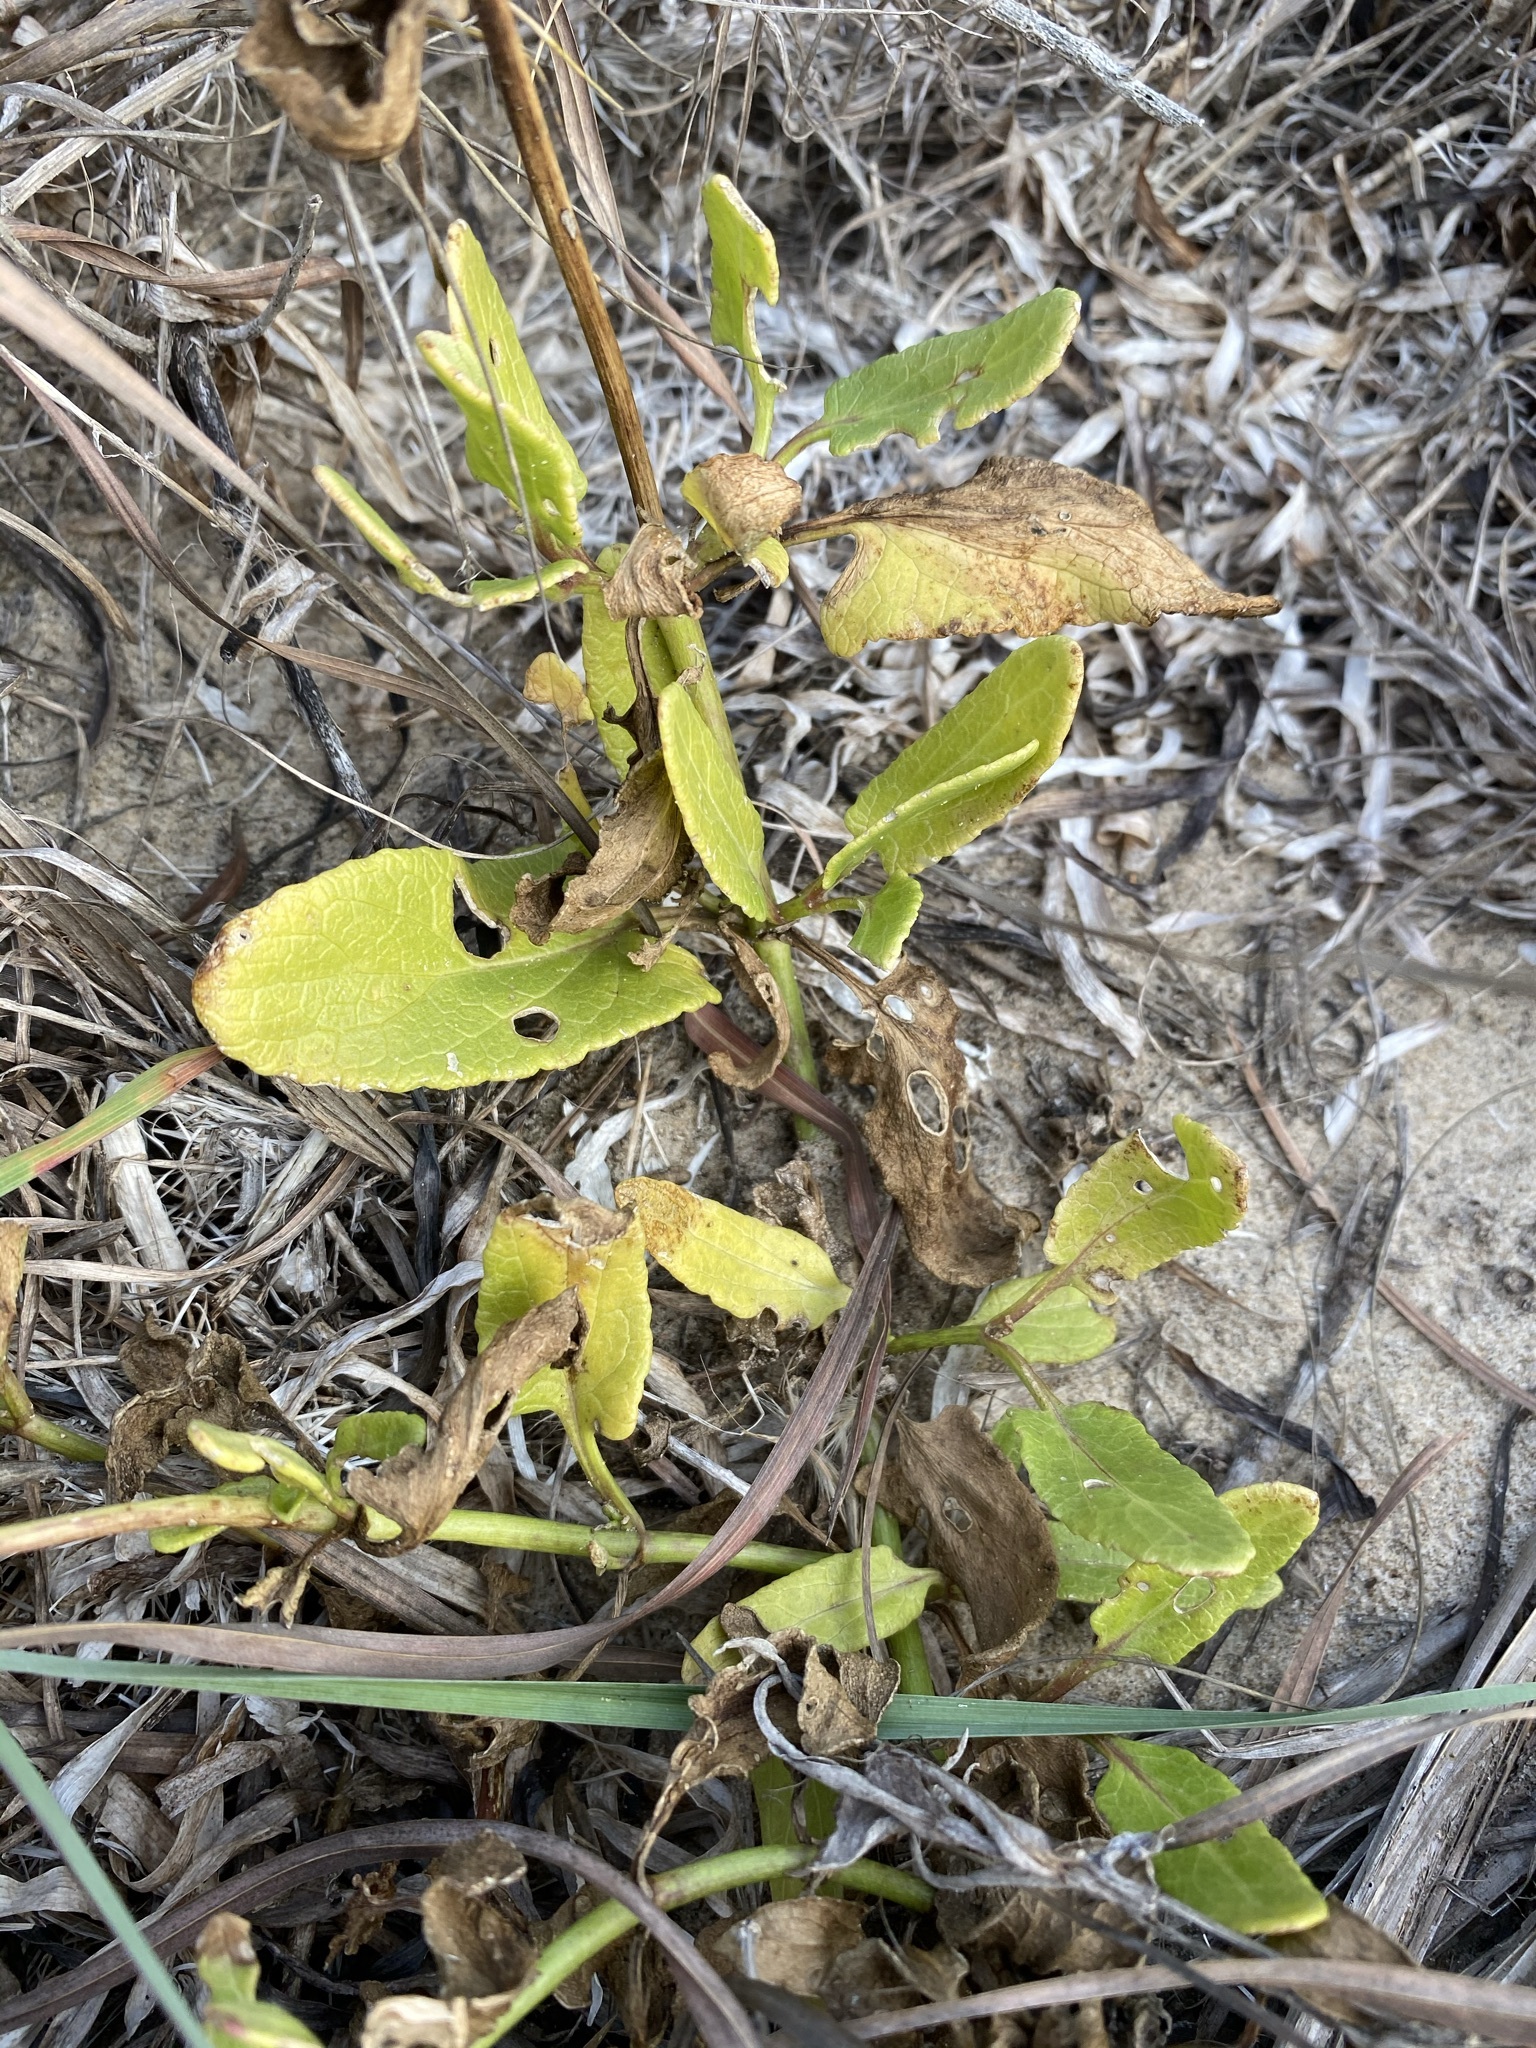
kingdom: Plantae
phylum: Tracheophyta
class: Magnoliopsida
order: Asterales
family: Asteraceae
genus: Conoclinium
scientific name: Conoclinium betonicifolium
